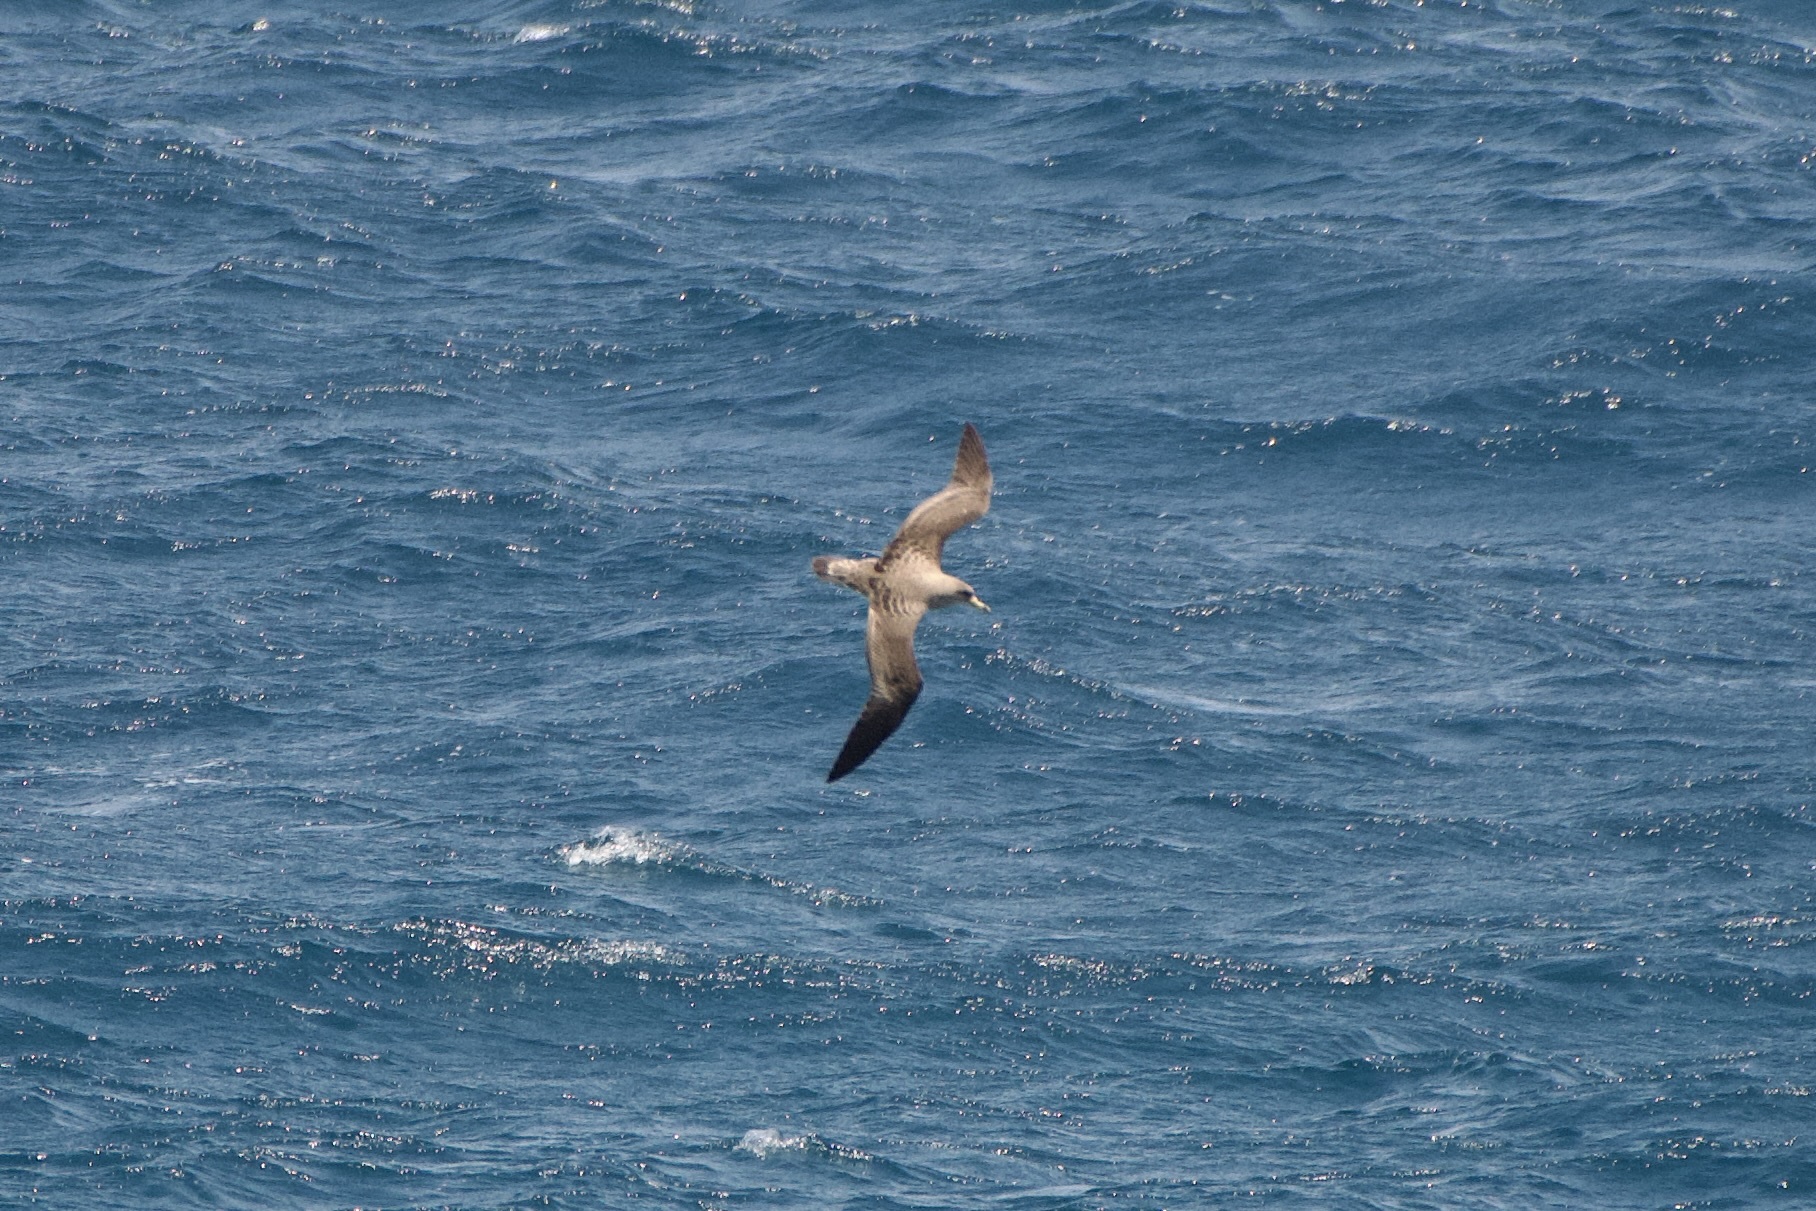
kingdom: Animalia
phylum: Chordata
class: Aves
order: Procellariiformes
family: Procellariidae
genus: Calonectris
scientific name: Calonectris diomedea
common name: Cory's shearwater
